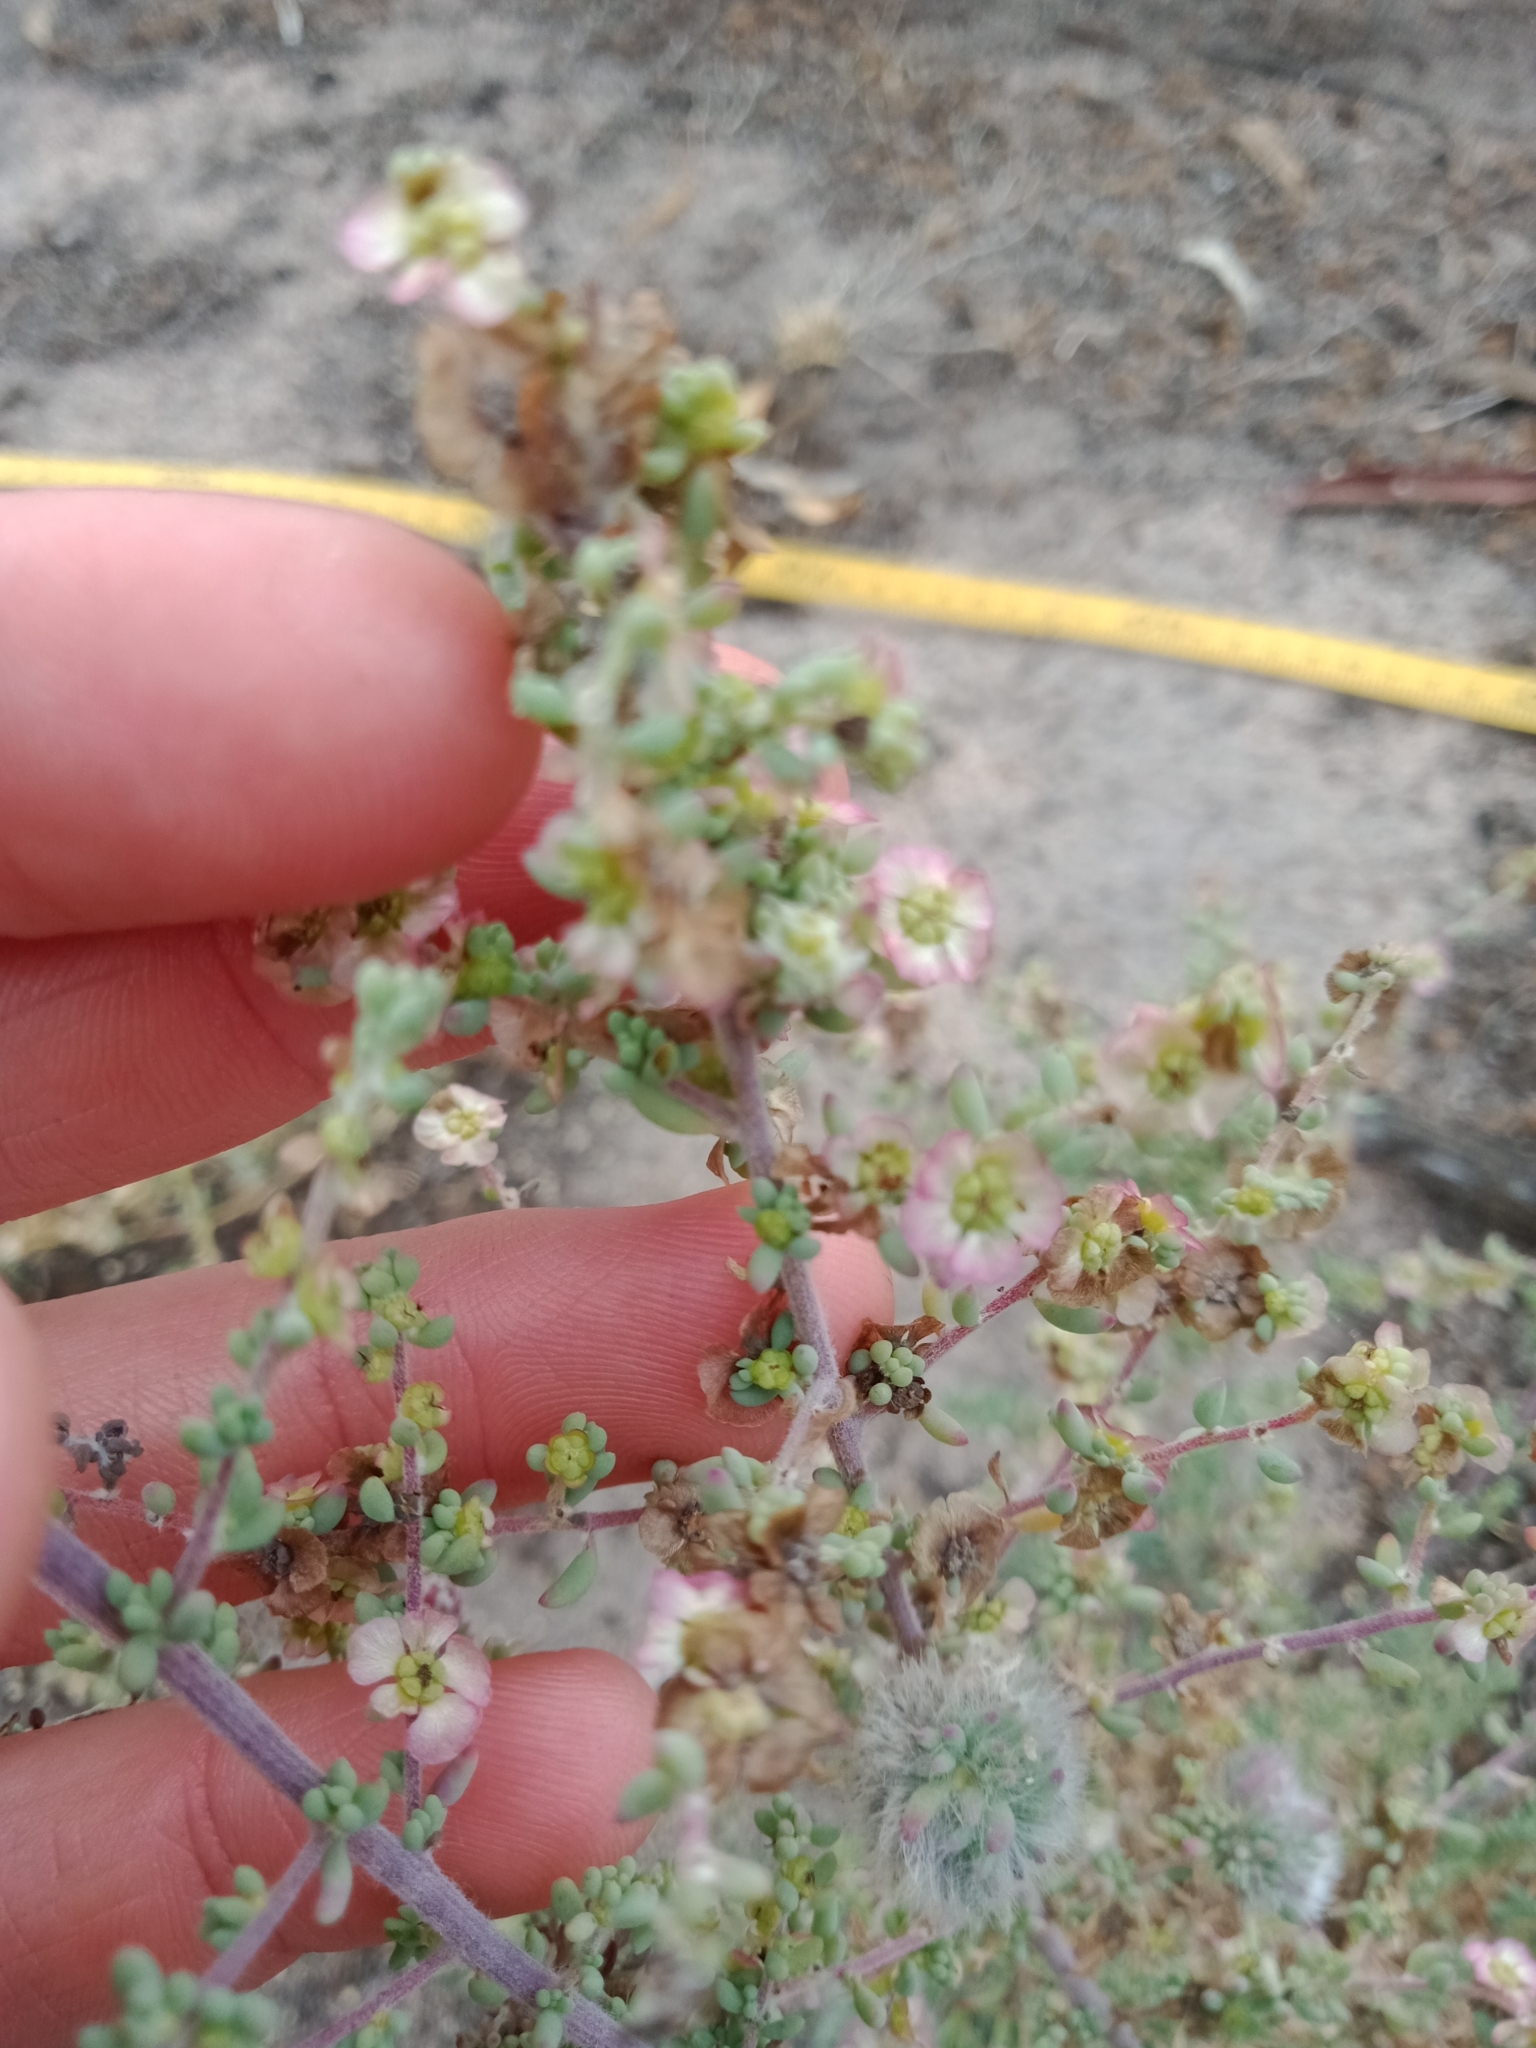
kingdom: Plantae
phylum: Tracheophyta
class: Magnoliopsida
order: Caryophyllales
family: Amaranthaceae
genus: Maireana
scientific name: Maireana brevifolia
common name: Eastern cottonbush
